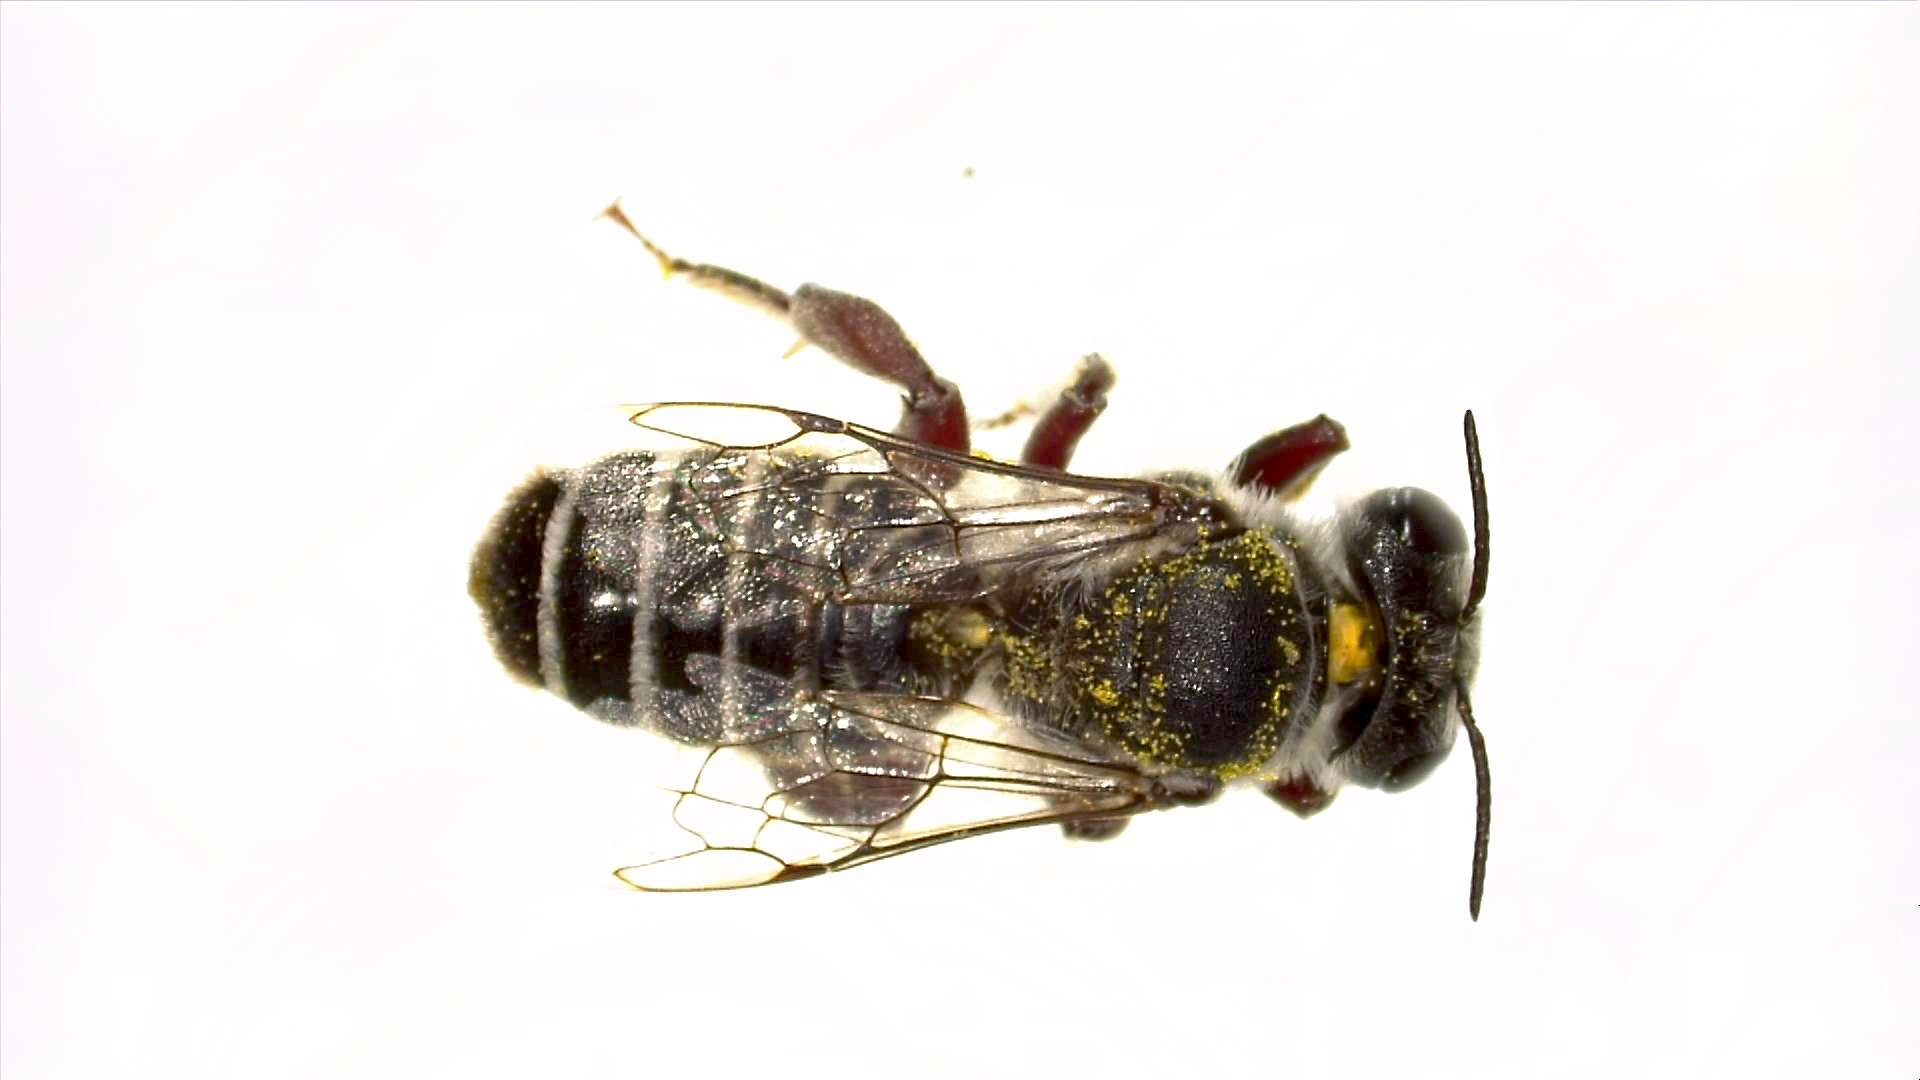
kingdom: Animalia
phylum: Arthropoda
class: Insecta
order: Hymenoptera
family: Megachilidae
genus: Lithurgopsis
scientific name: Lithurgopsis echinocacti
